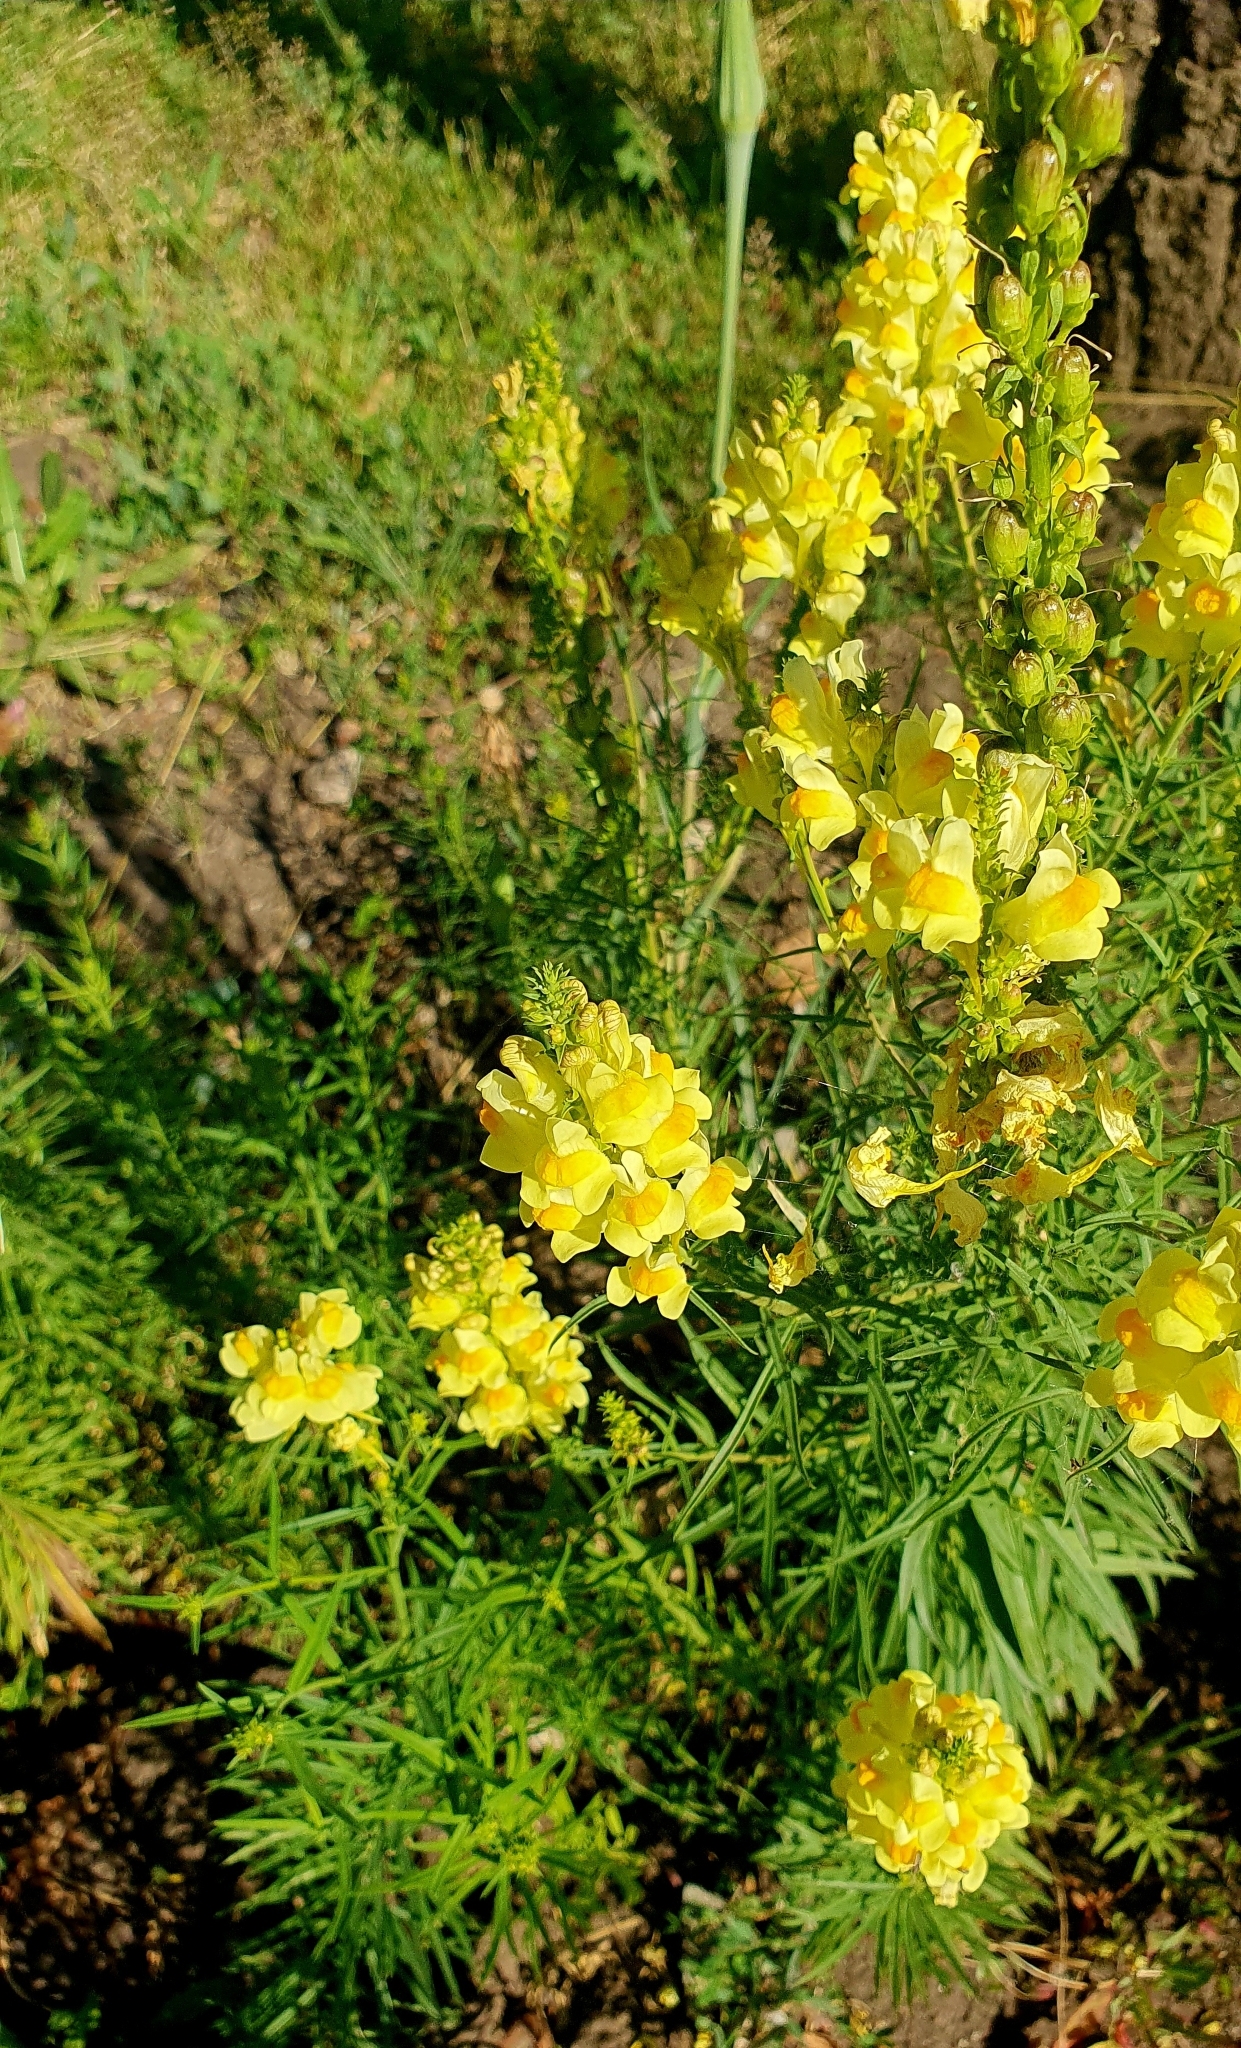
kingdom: Plantae
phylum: Tracheophyta
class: Magnoliopsida
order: Lamiales
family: Plantaginaceae
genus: Linaria
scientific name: Linaria vulgaris
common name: Butter and eggs
